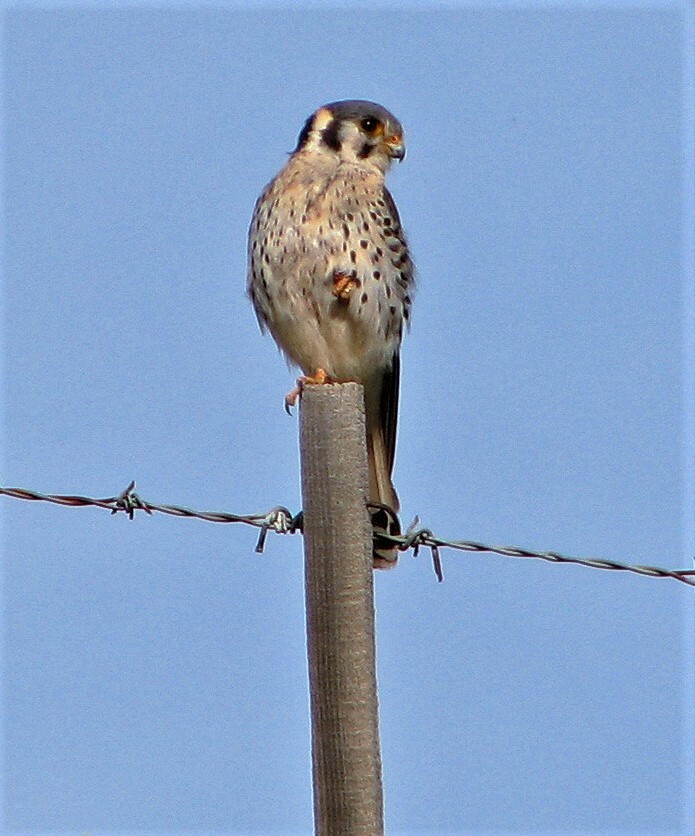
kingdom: Animalia
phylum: Chordata
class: Aves
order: Falconiformes
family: Falconidae
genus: Falco
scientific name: Falco sparverius
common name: American kestrel
